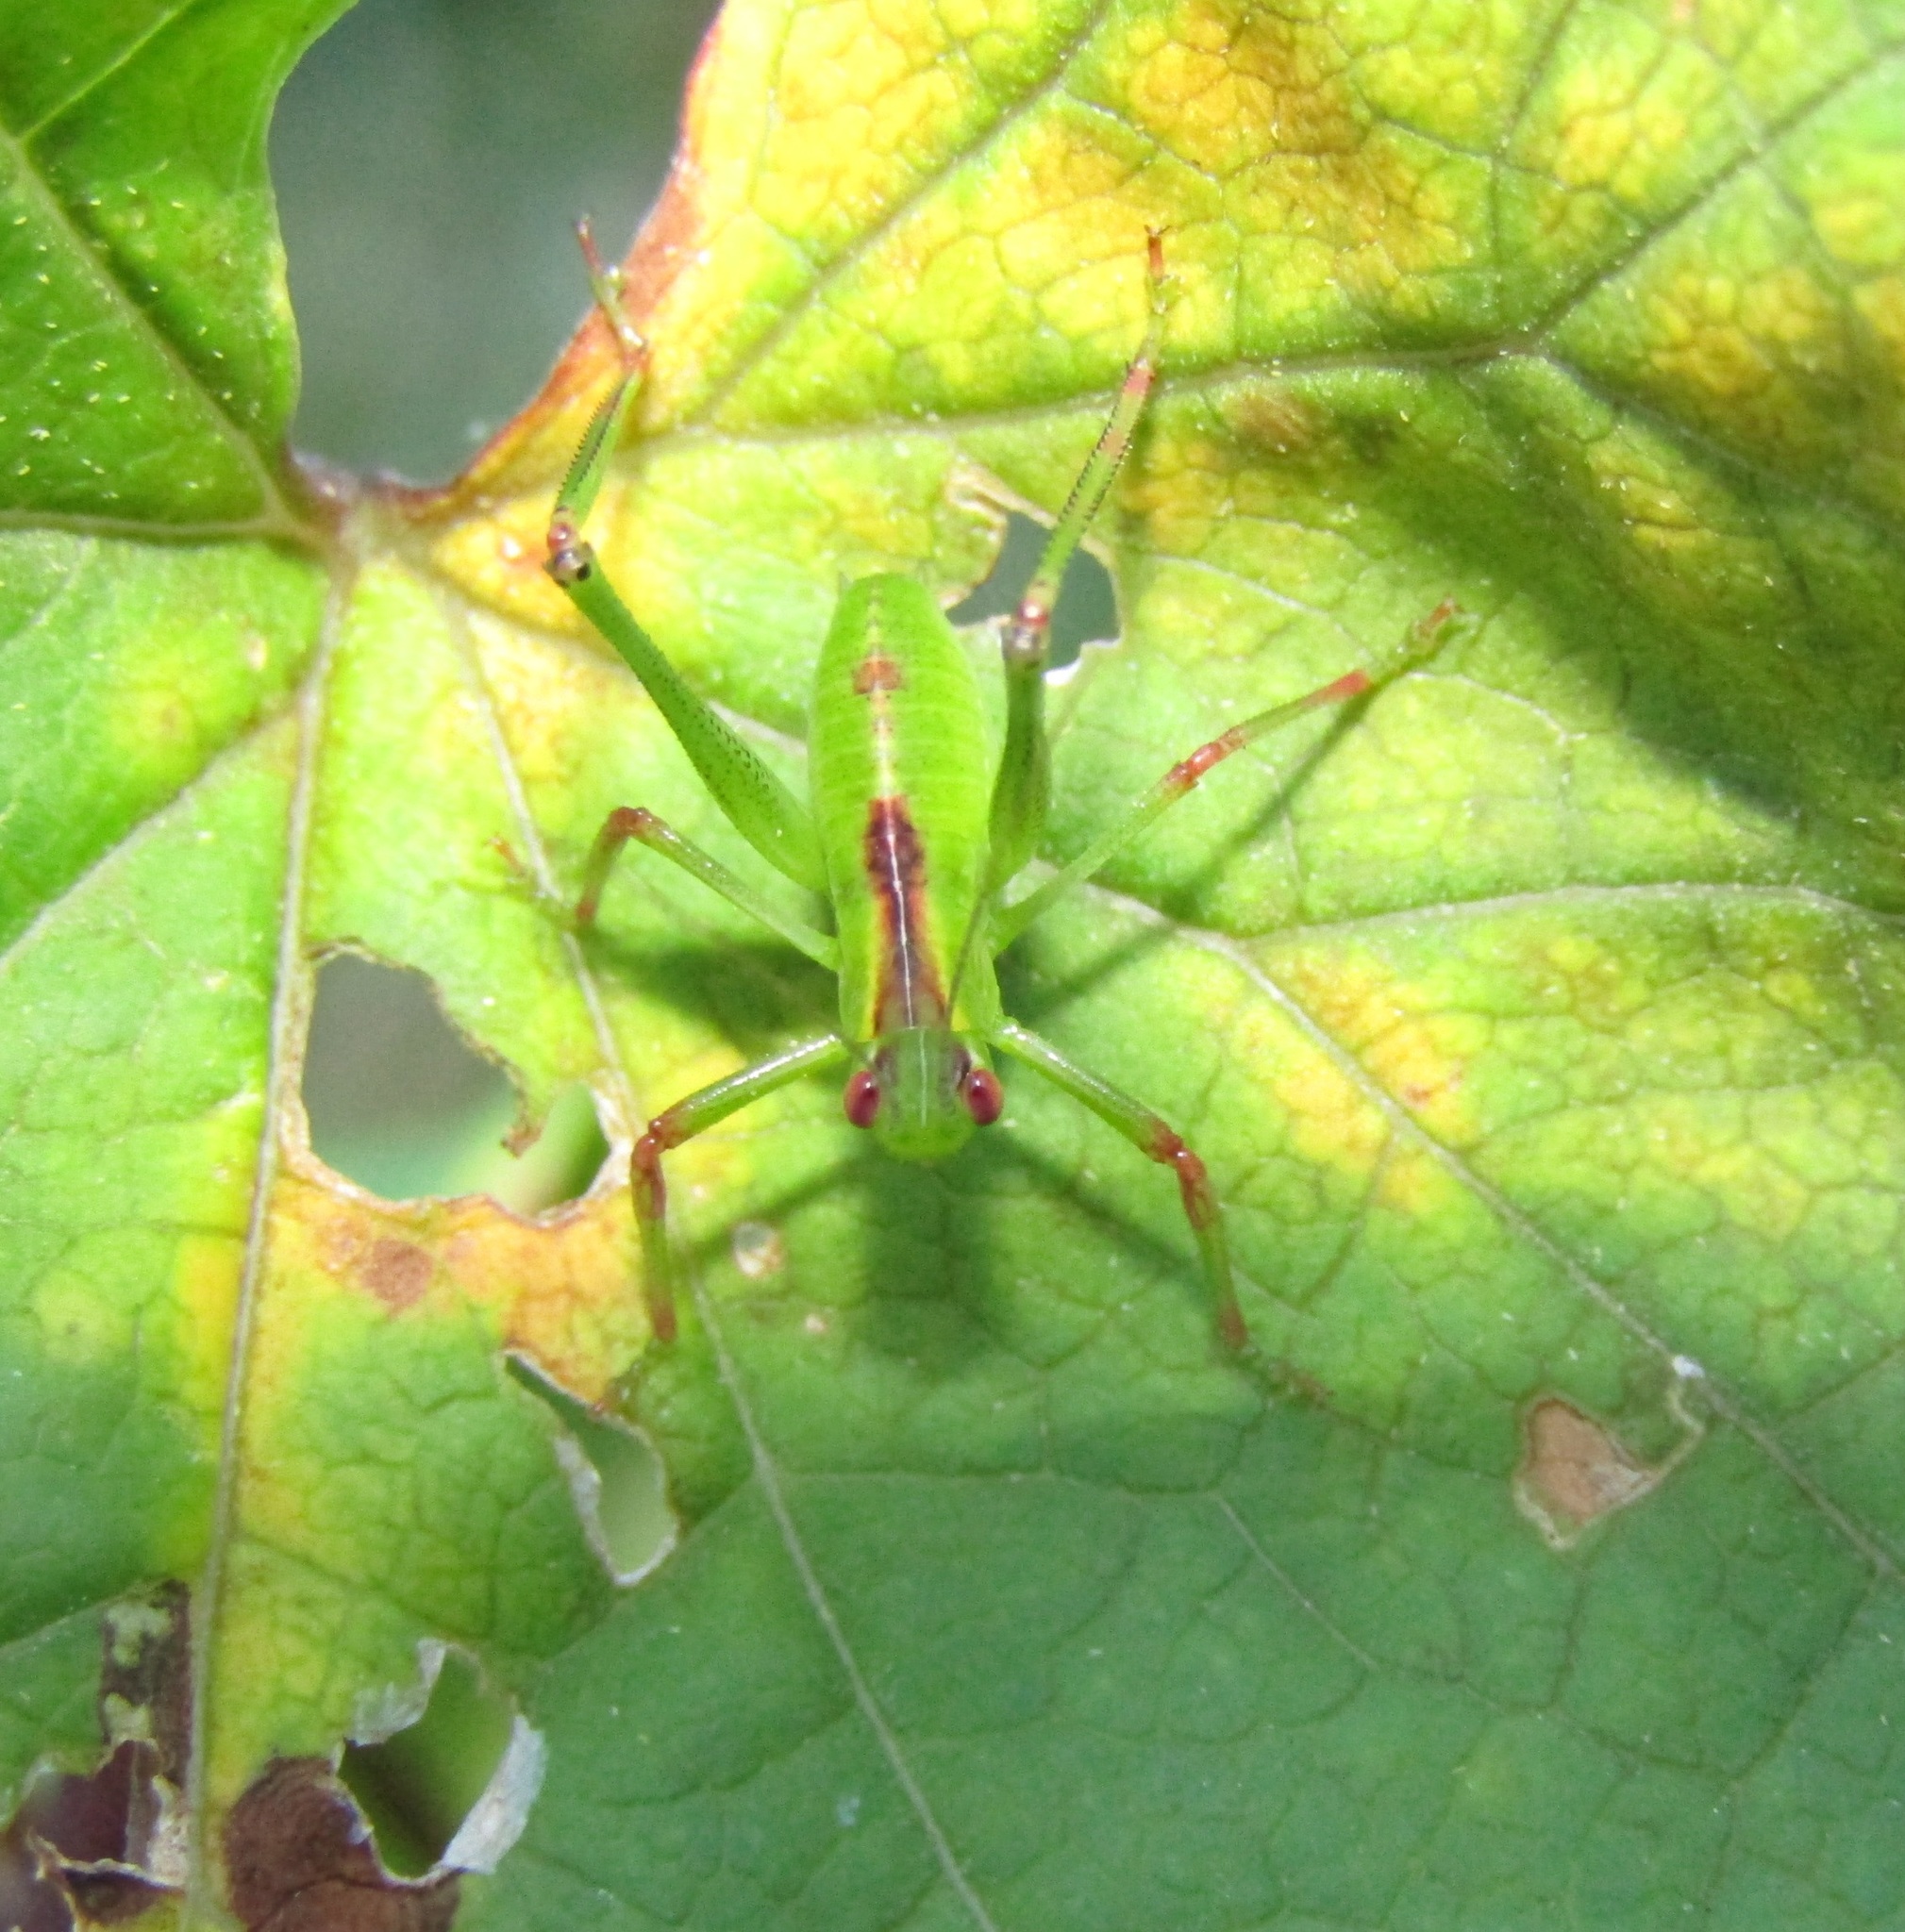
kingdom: Animalia
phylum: Arthropoda
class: Insecta
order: Orthoptera
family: Tettigoniidae
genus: Caedicia
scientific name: Caedicia simplex
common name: Common garden katydid
